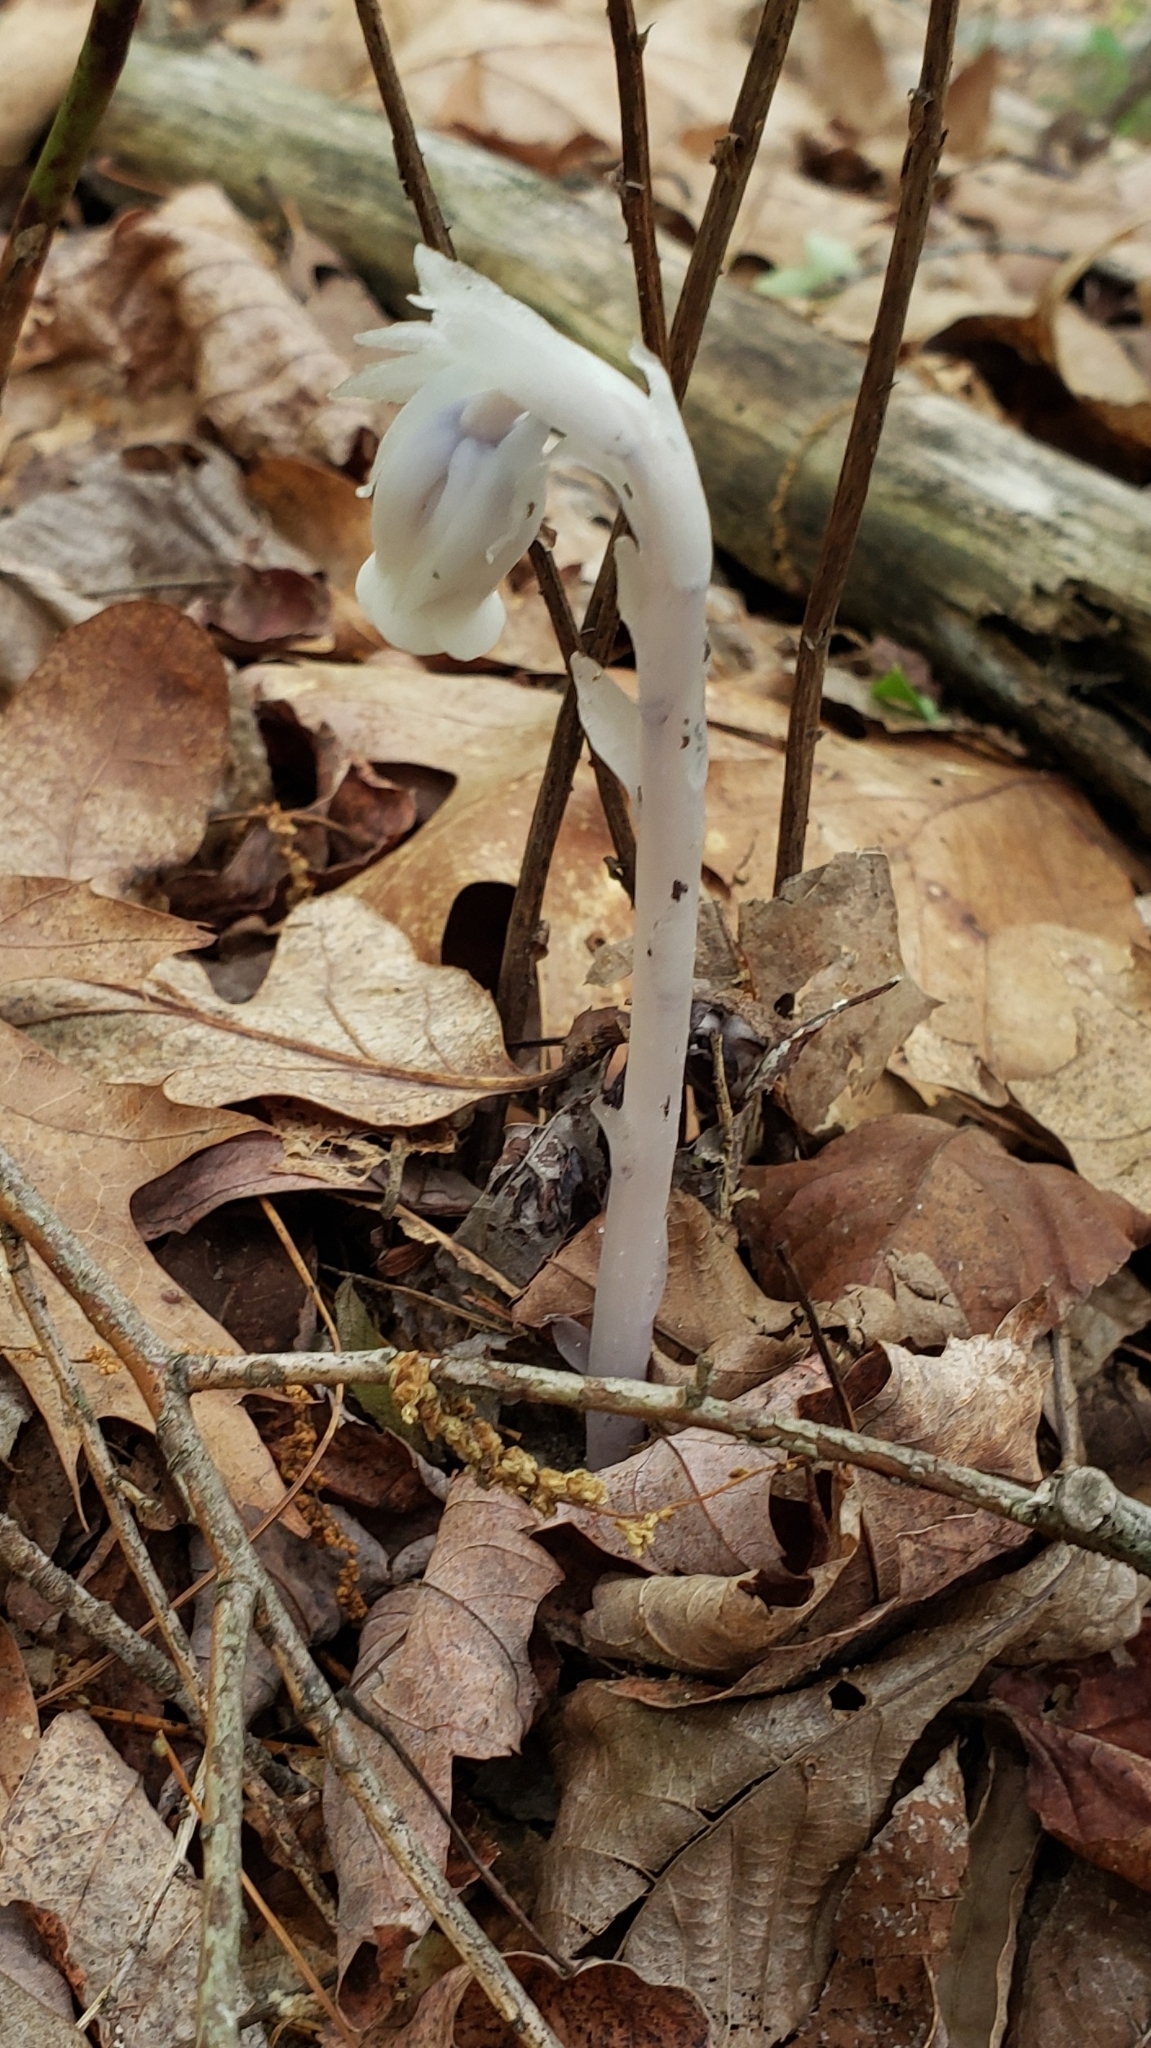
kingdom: Plantae
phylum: Tracheophyta
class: Magnoliopsida
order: Ericales
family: Ericaceae
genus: Monotropa
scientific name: Monotropa uniflora
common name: Convulsion root
